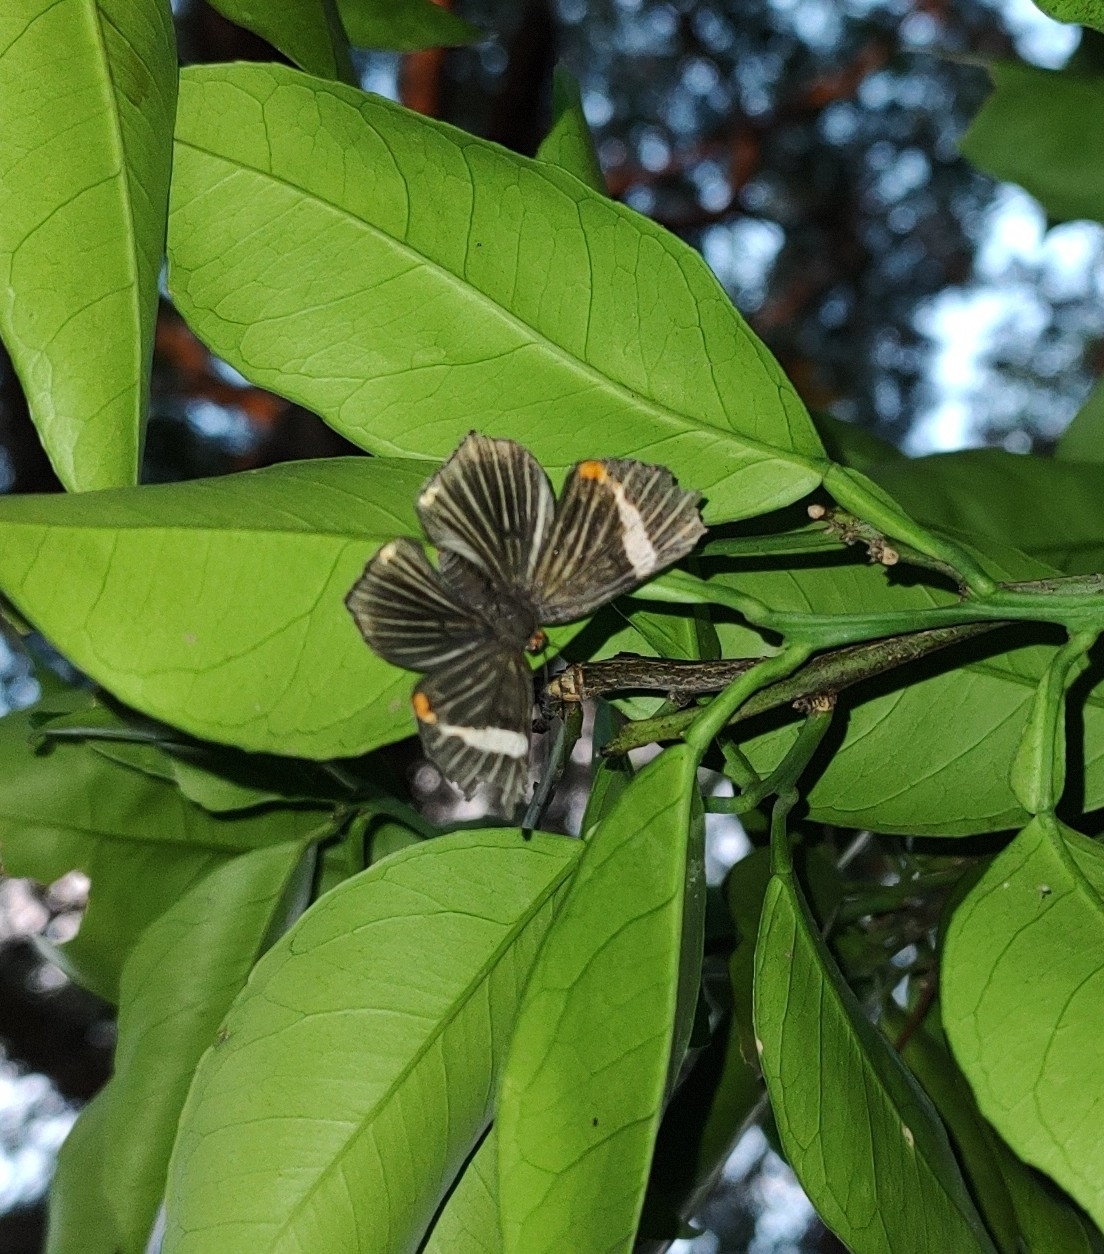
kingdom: Animalia
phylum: Arthropoda
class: Insecta
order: Lepidoptera
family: Riodinidae
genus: Riodina
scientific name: Riodina lycisca
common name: Lycisca metalmark
